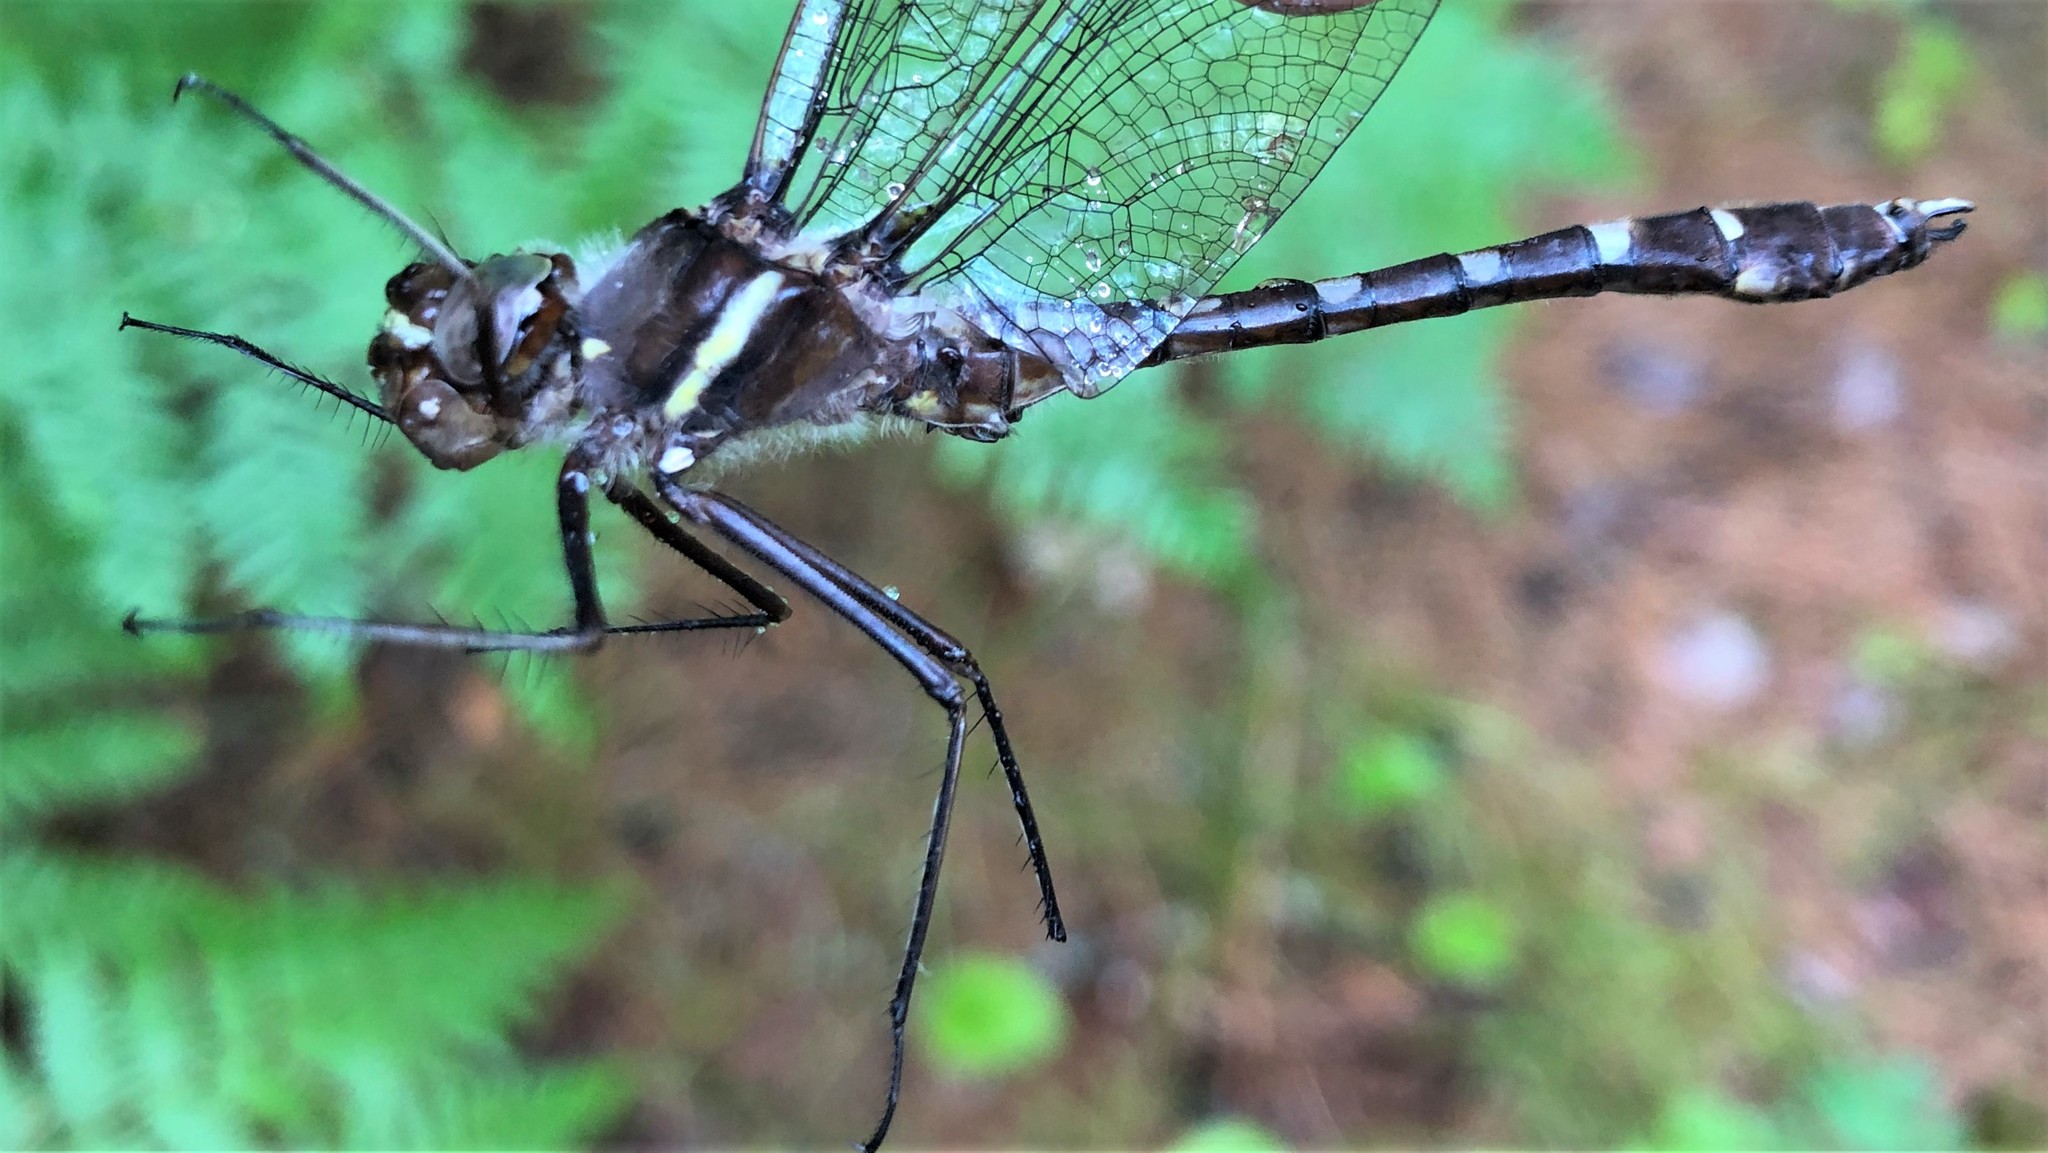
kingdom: Animalia
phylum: Arthropoda
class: Insecta
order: Odonata
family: Macromiidae
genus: Didymops
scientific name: Didymops transversa
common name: Stream cruiser
